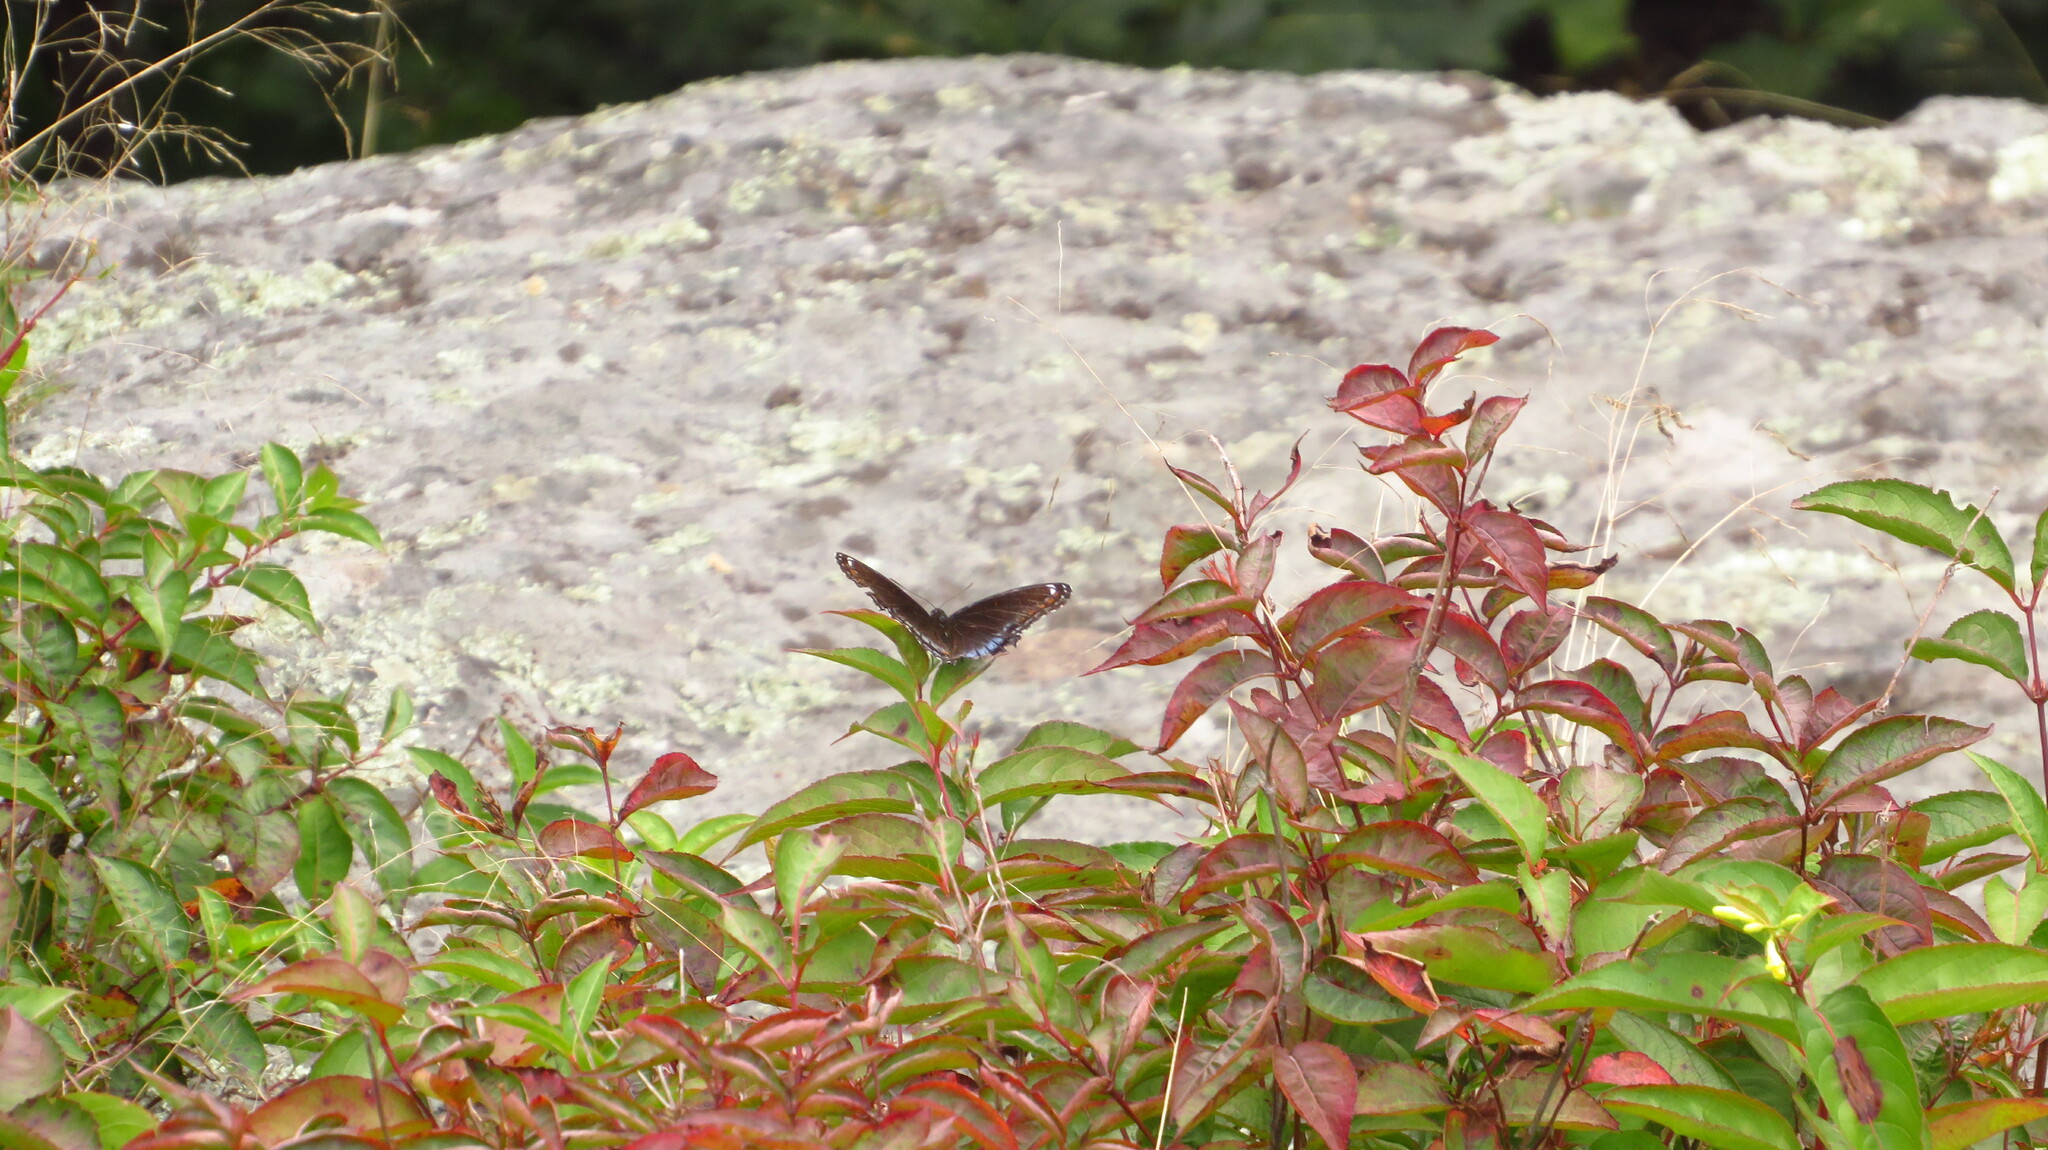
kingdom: Animalia
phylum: Arthropoda
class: Insecta
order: Lepidoptera
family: Nymphalidae
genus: Limenitis
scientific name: Limenitis astyanax
